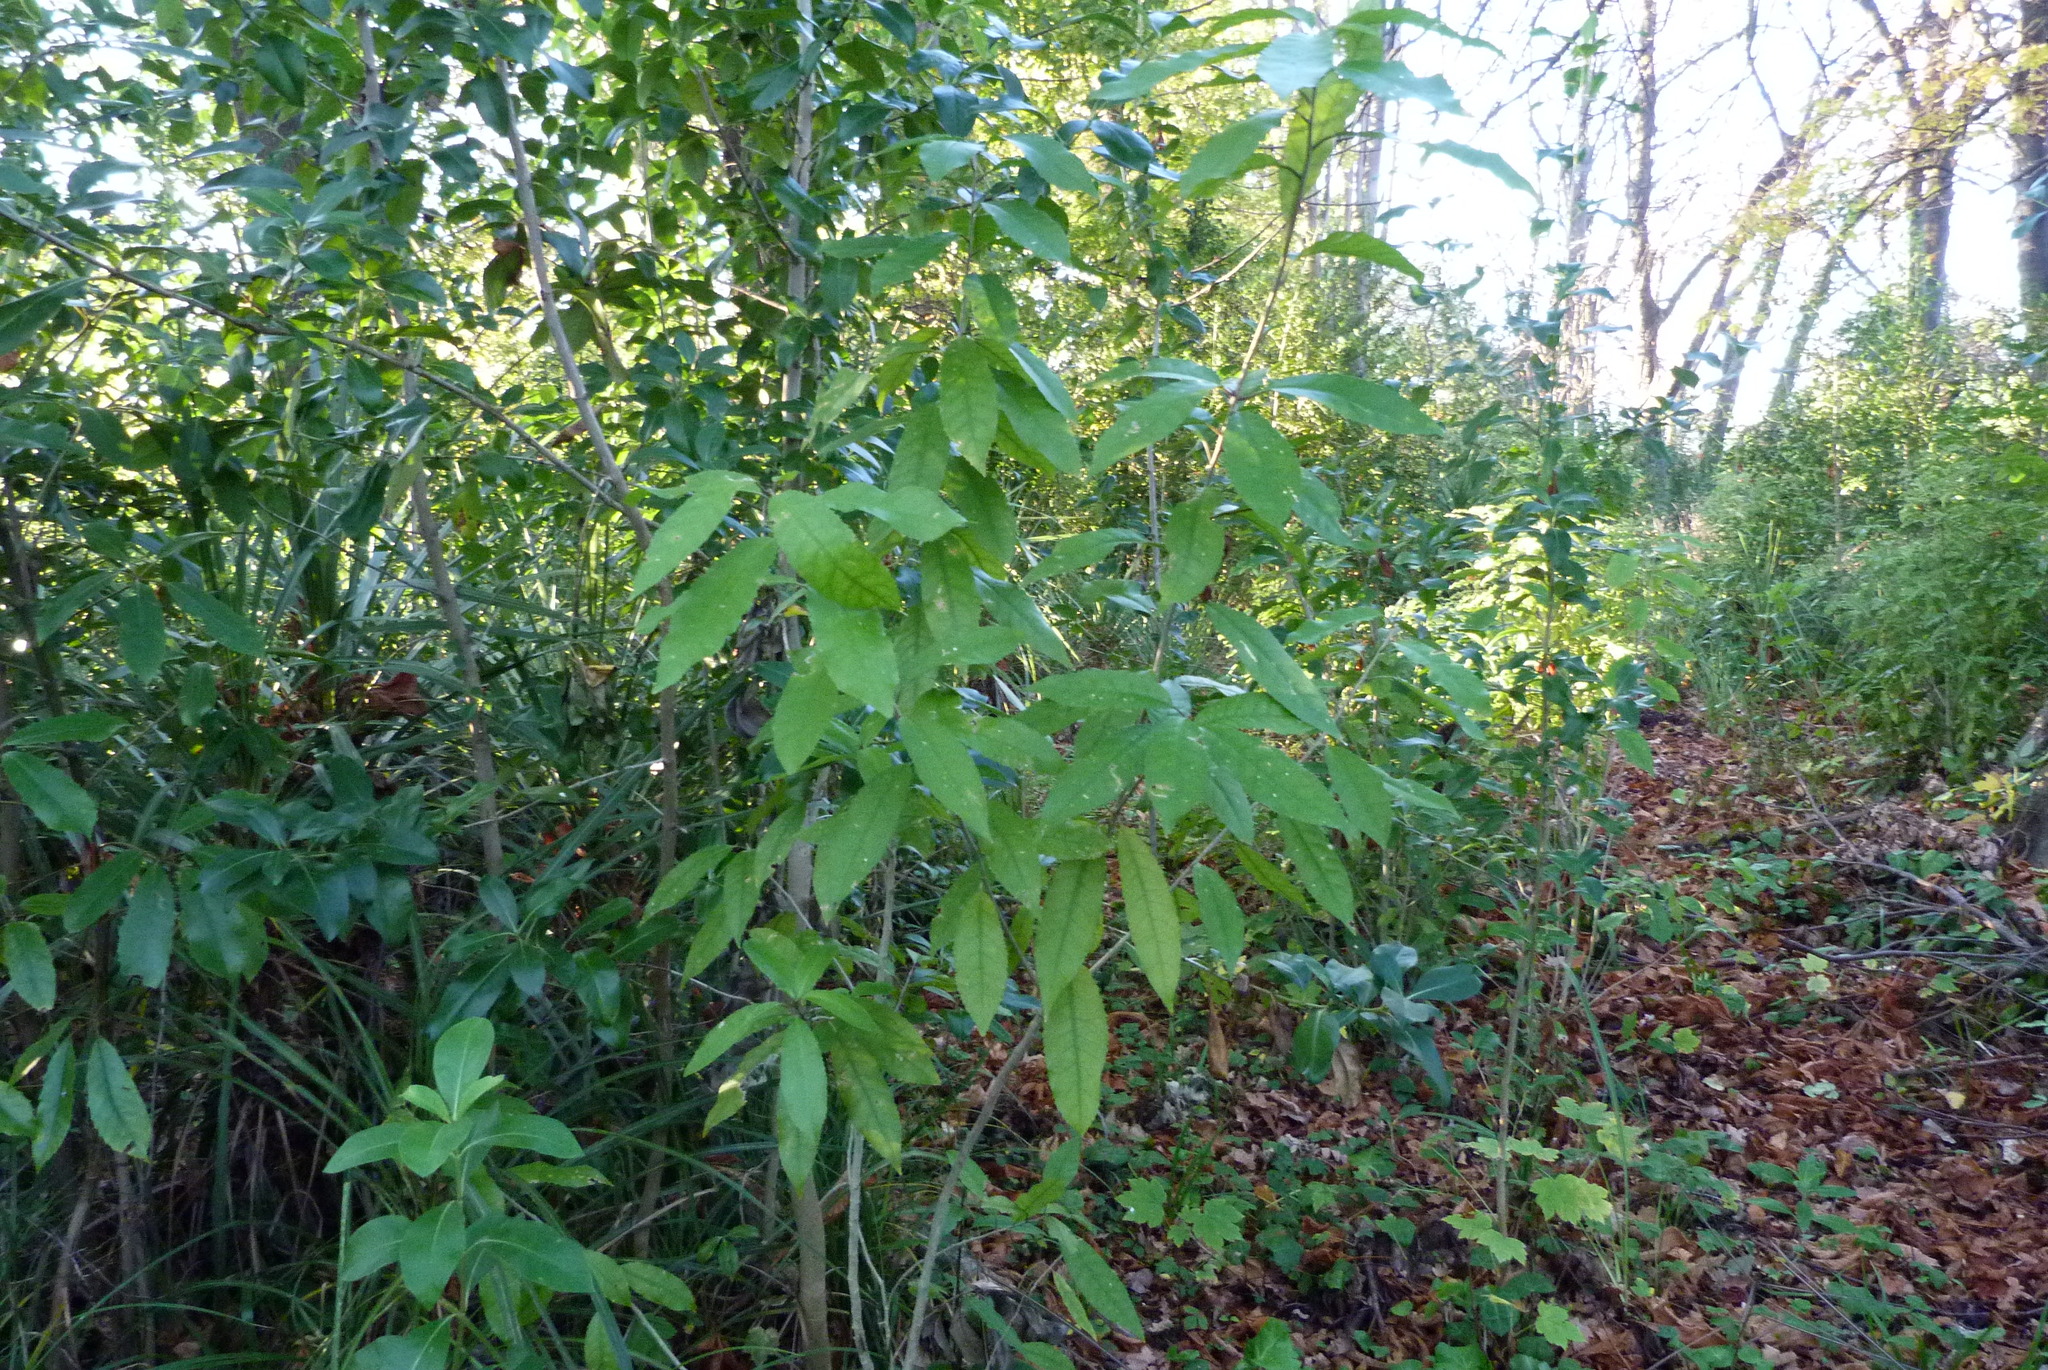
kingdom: Plantae
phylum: Tracheophyta
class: Magnoliopsida
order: Malpighiales
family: Violaceae
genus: Melicytus
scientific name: Melicytus ramiflorus
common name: Mahoe
